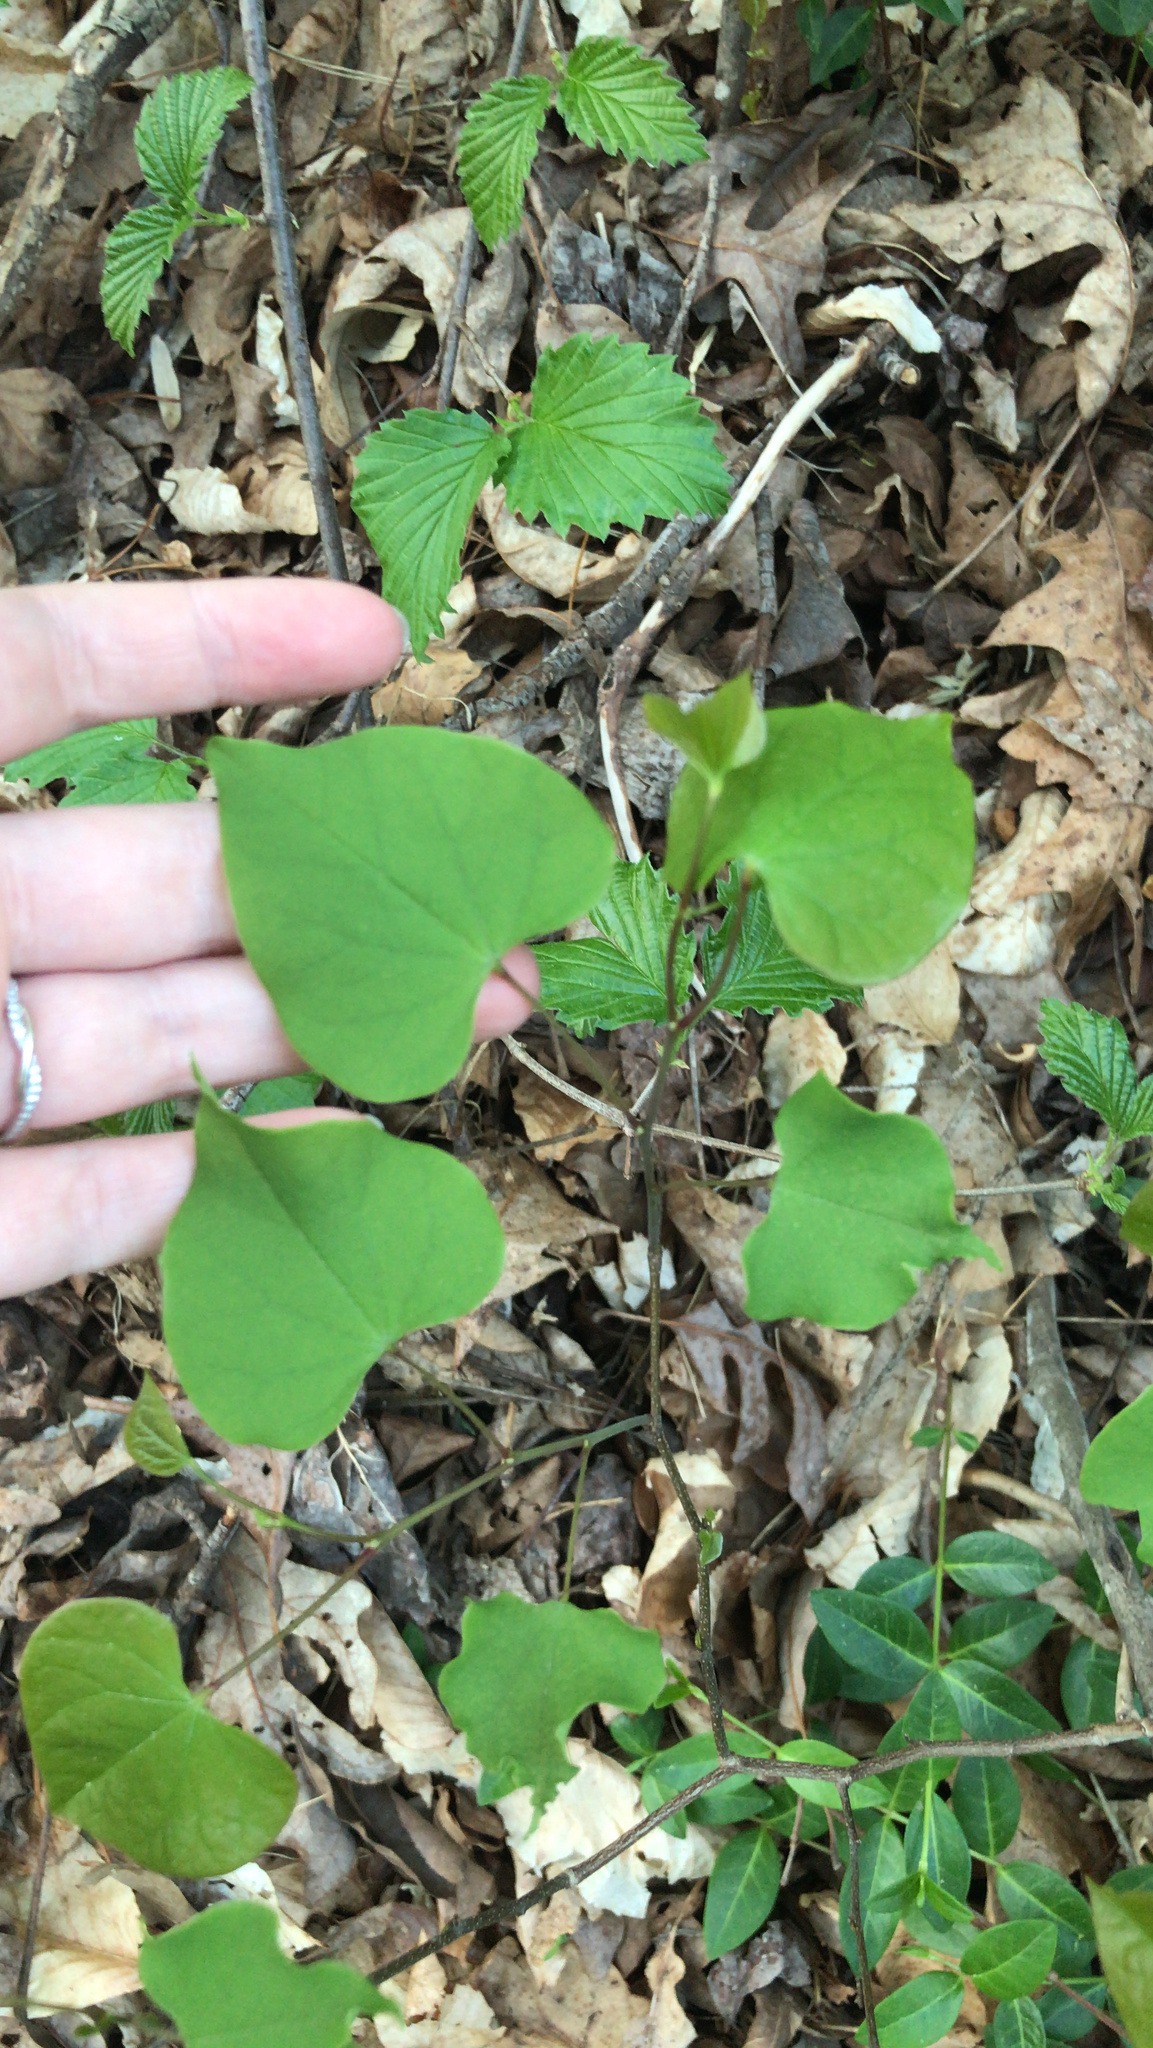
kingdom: Plantae
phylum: Tracheophyta
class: Magnoliopsida
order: Fabales
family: Fabaceae
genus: Cercis
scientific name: Cercis canadensis
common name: Eastern redbud
